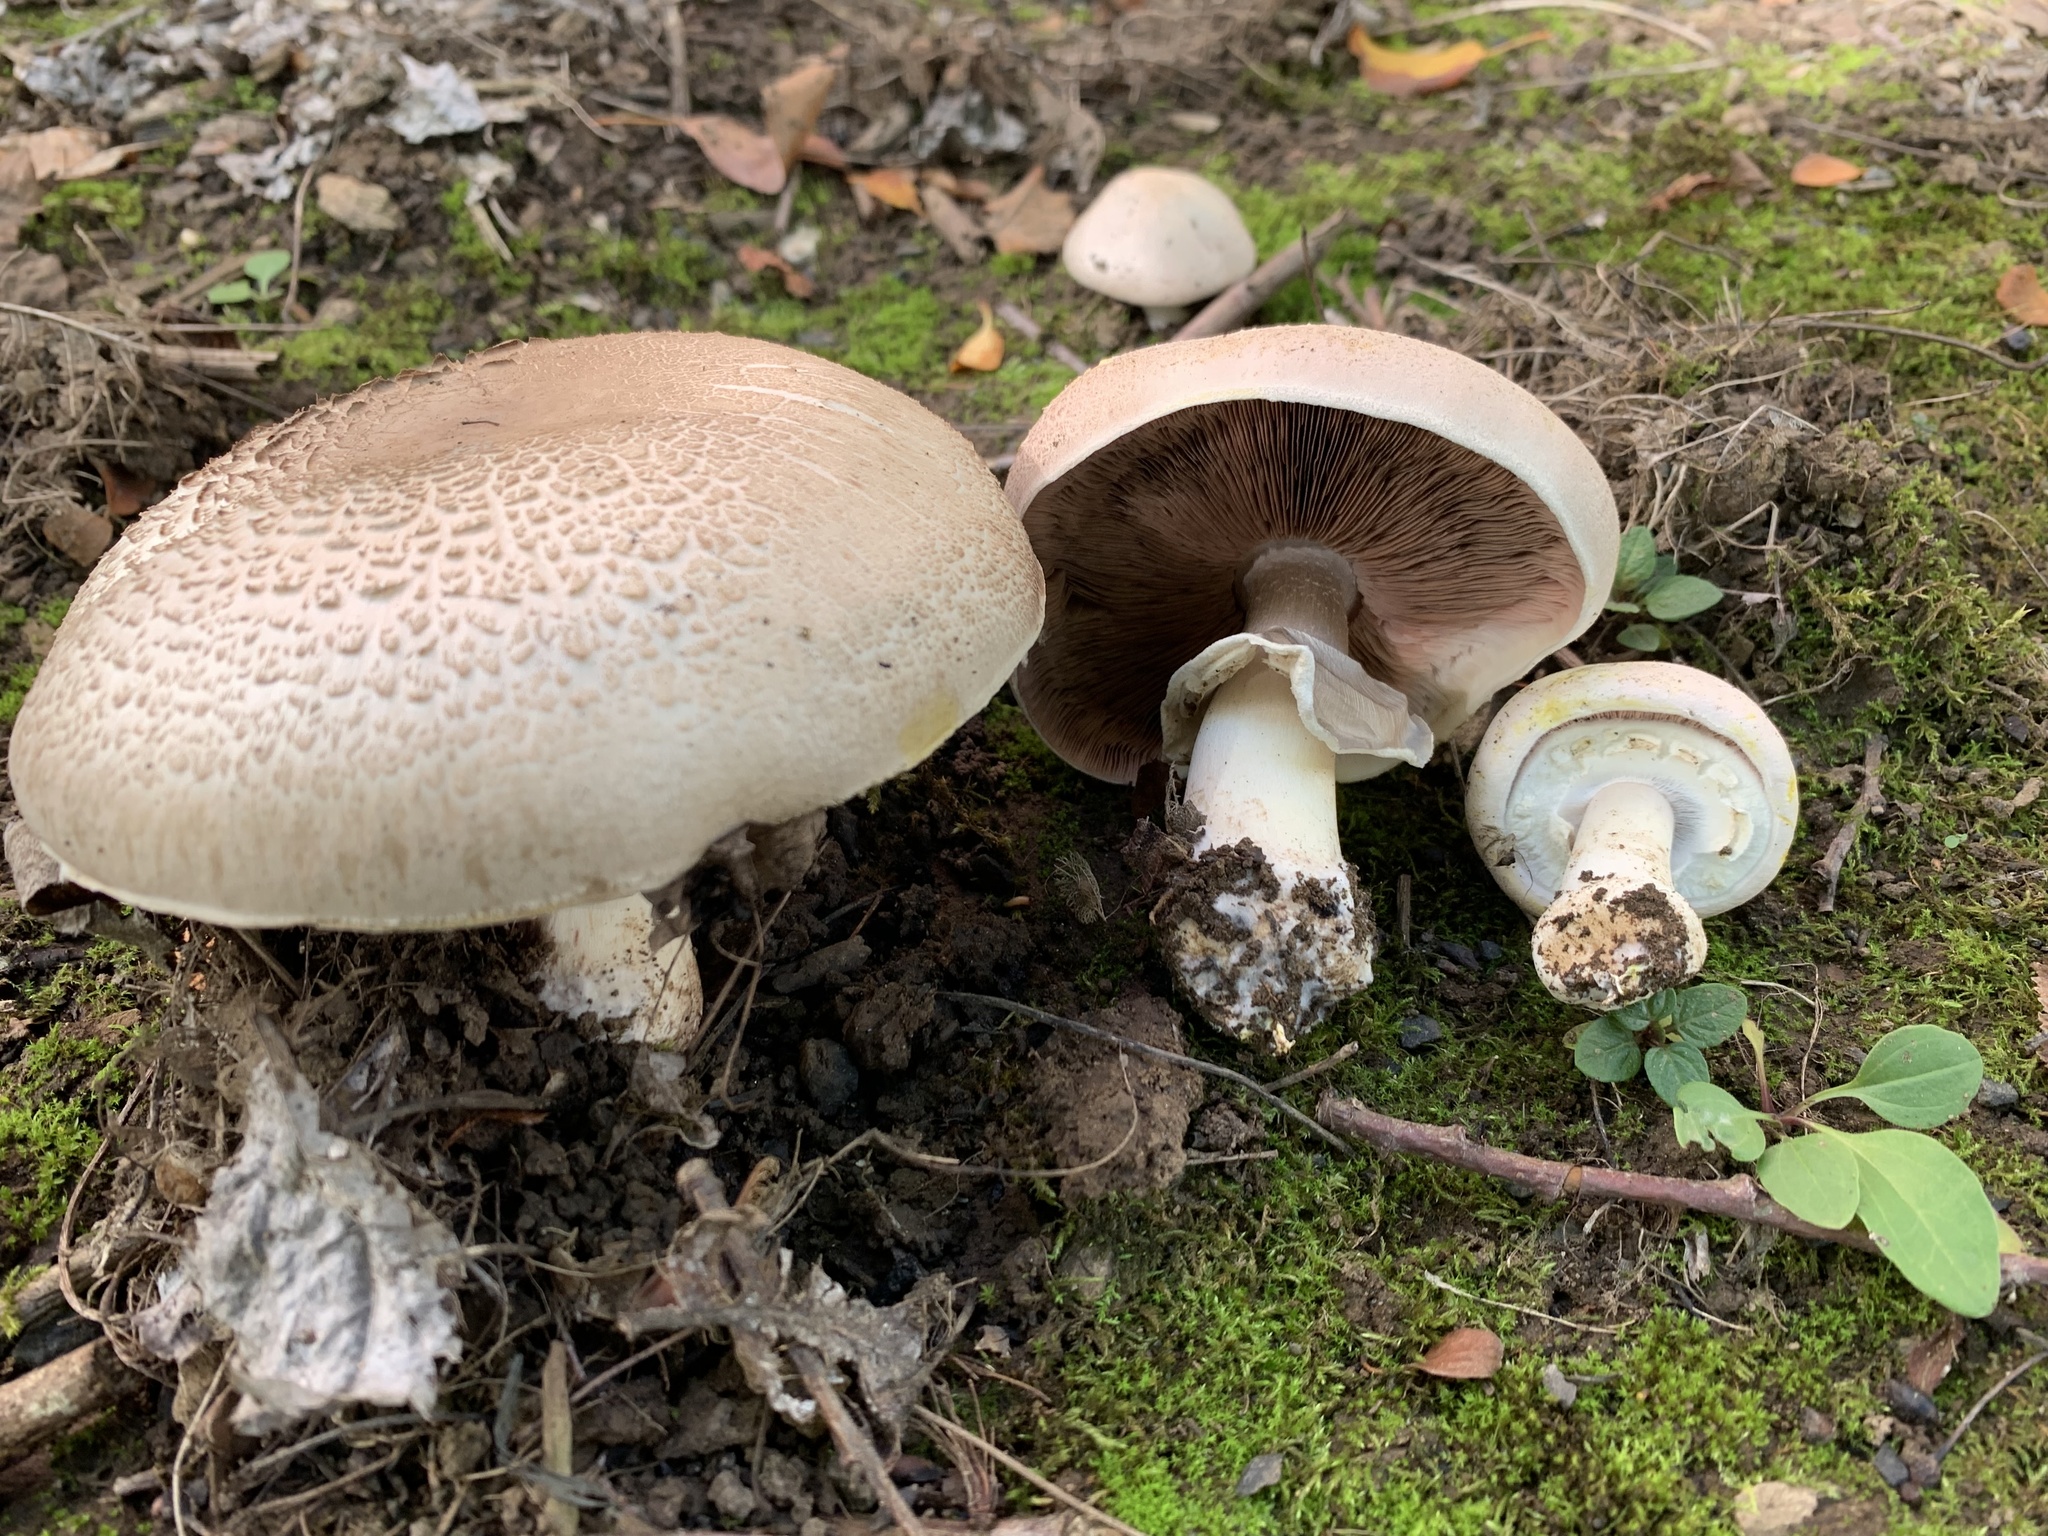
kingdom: Fungi
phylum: Basidiomycota
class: Agaricomycetes
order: Agaricales
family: Agaricaceae
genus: Agaricus
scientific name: Agaricus xanthodermus
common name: Yellow stainer
